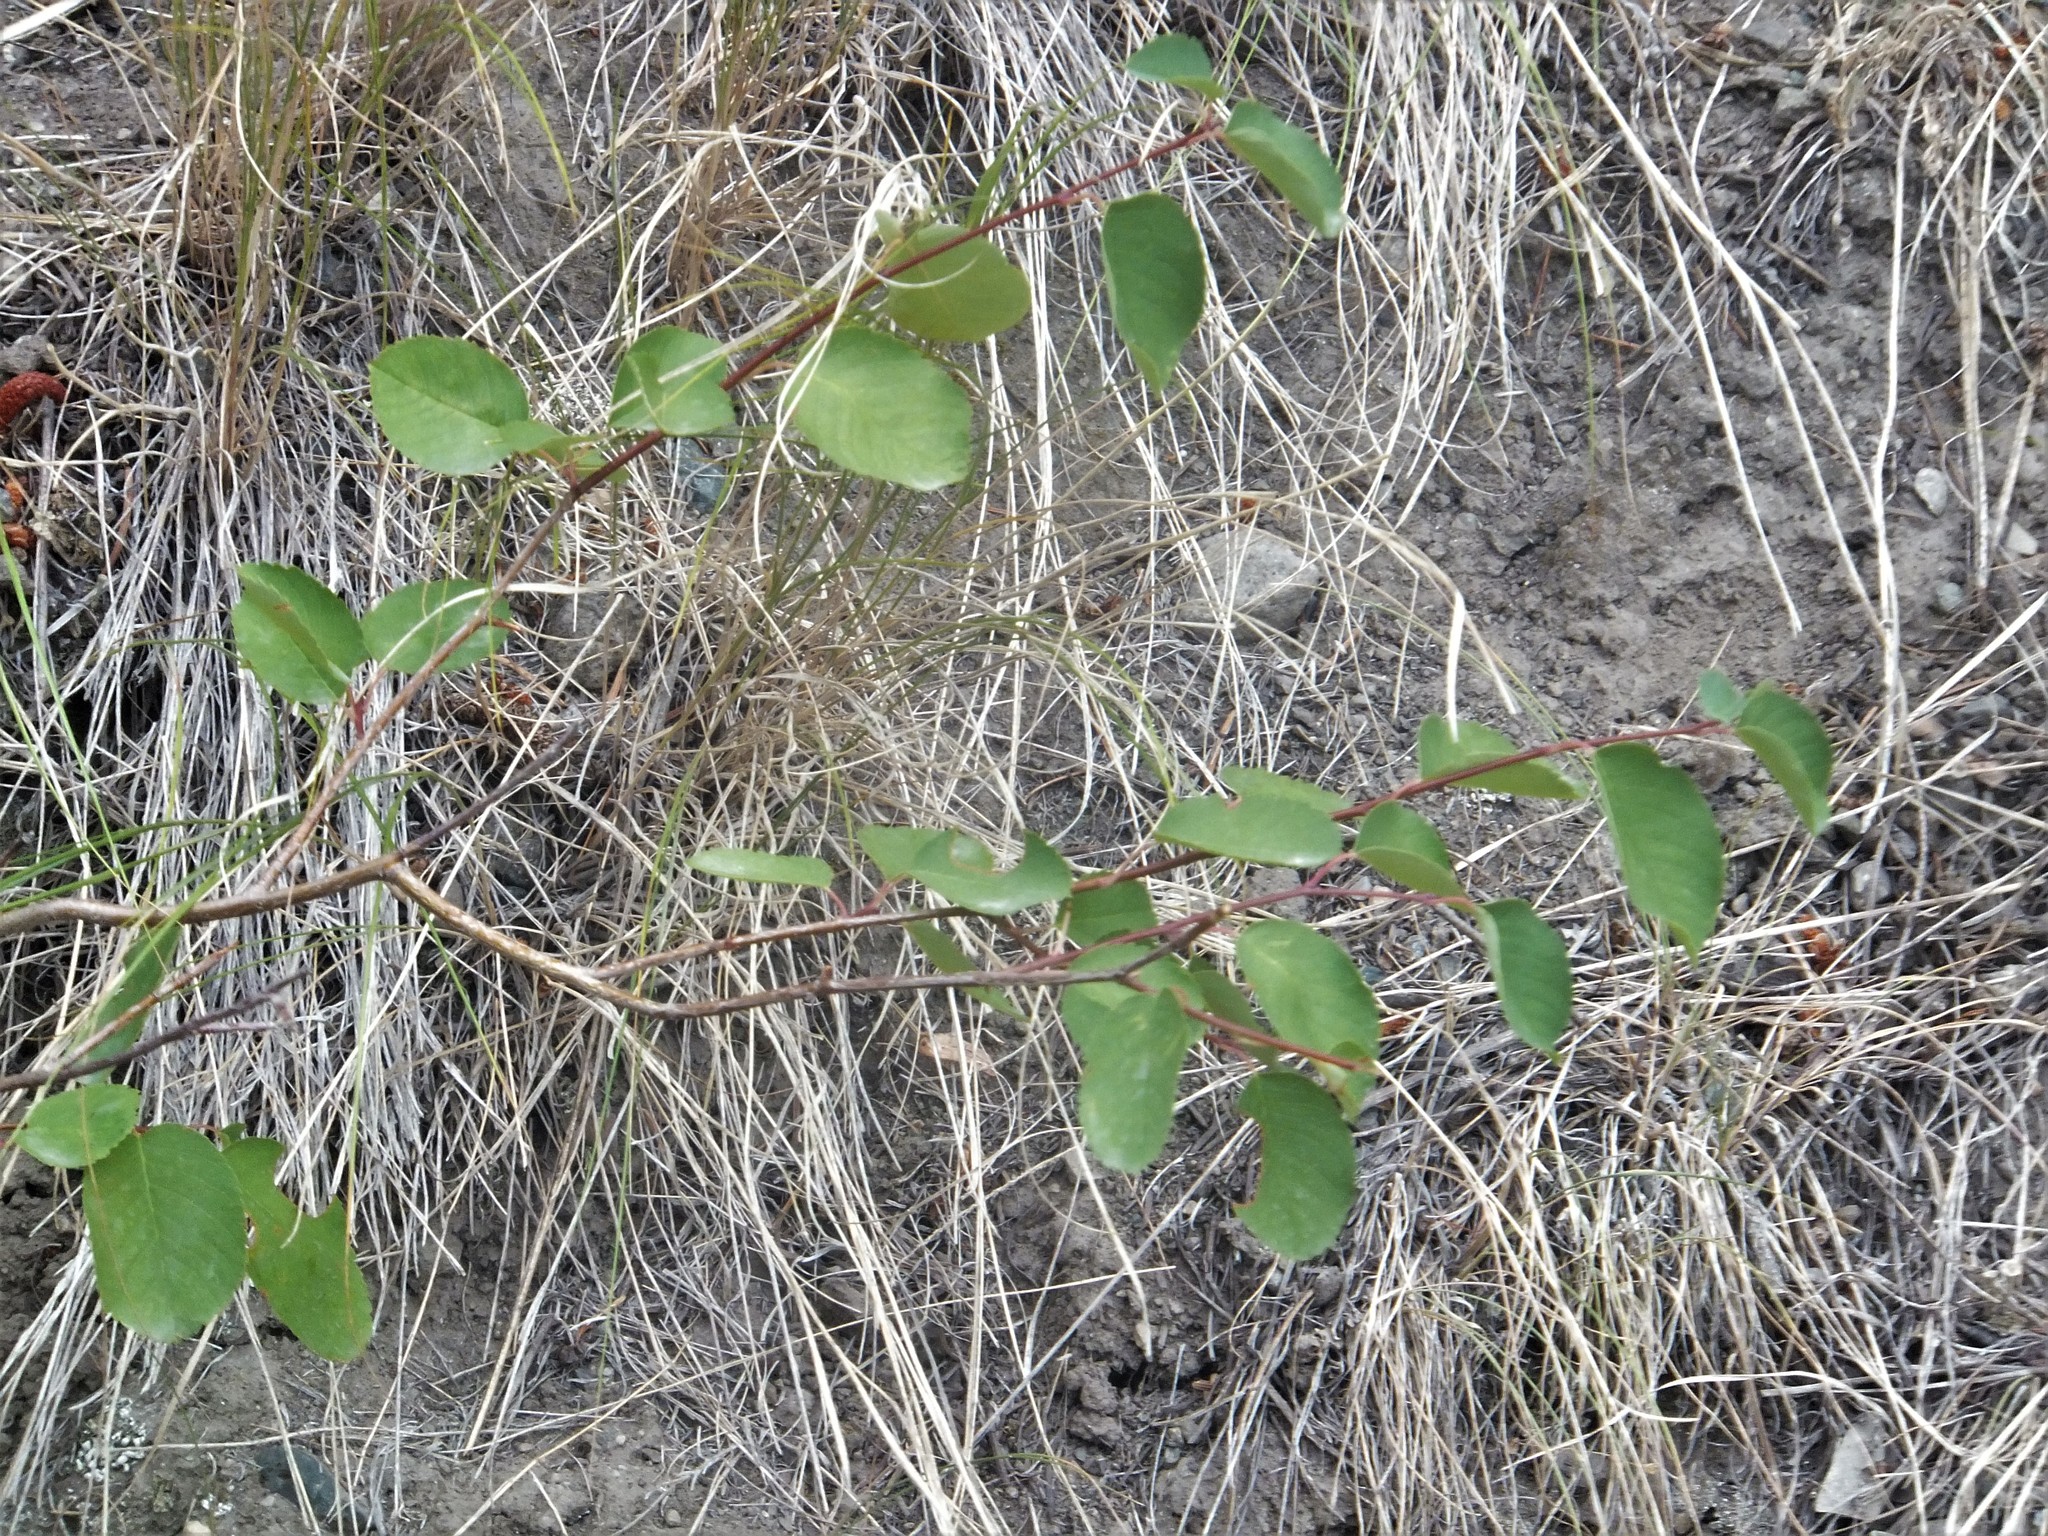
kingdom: Plantae
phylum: Tracheophyta
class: Magnoliopsida
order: Rosales
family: Rosaceae
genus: Amelanchier
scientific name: Amelanchier alnifolia
